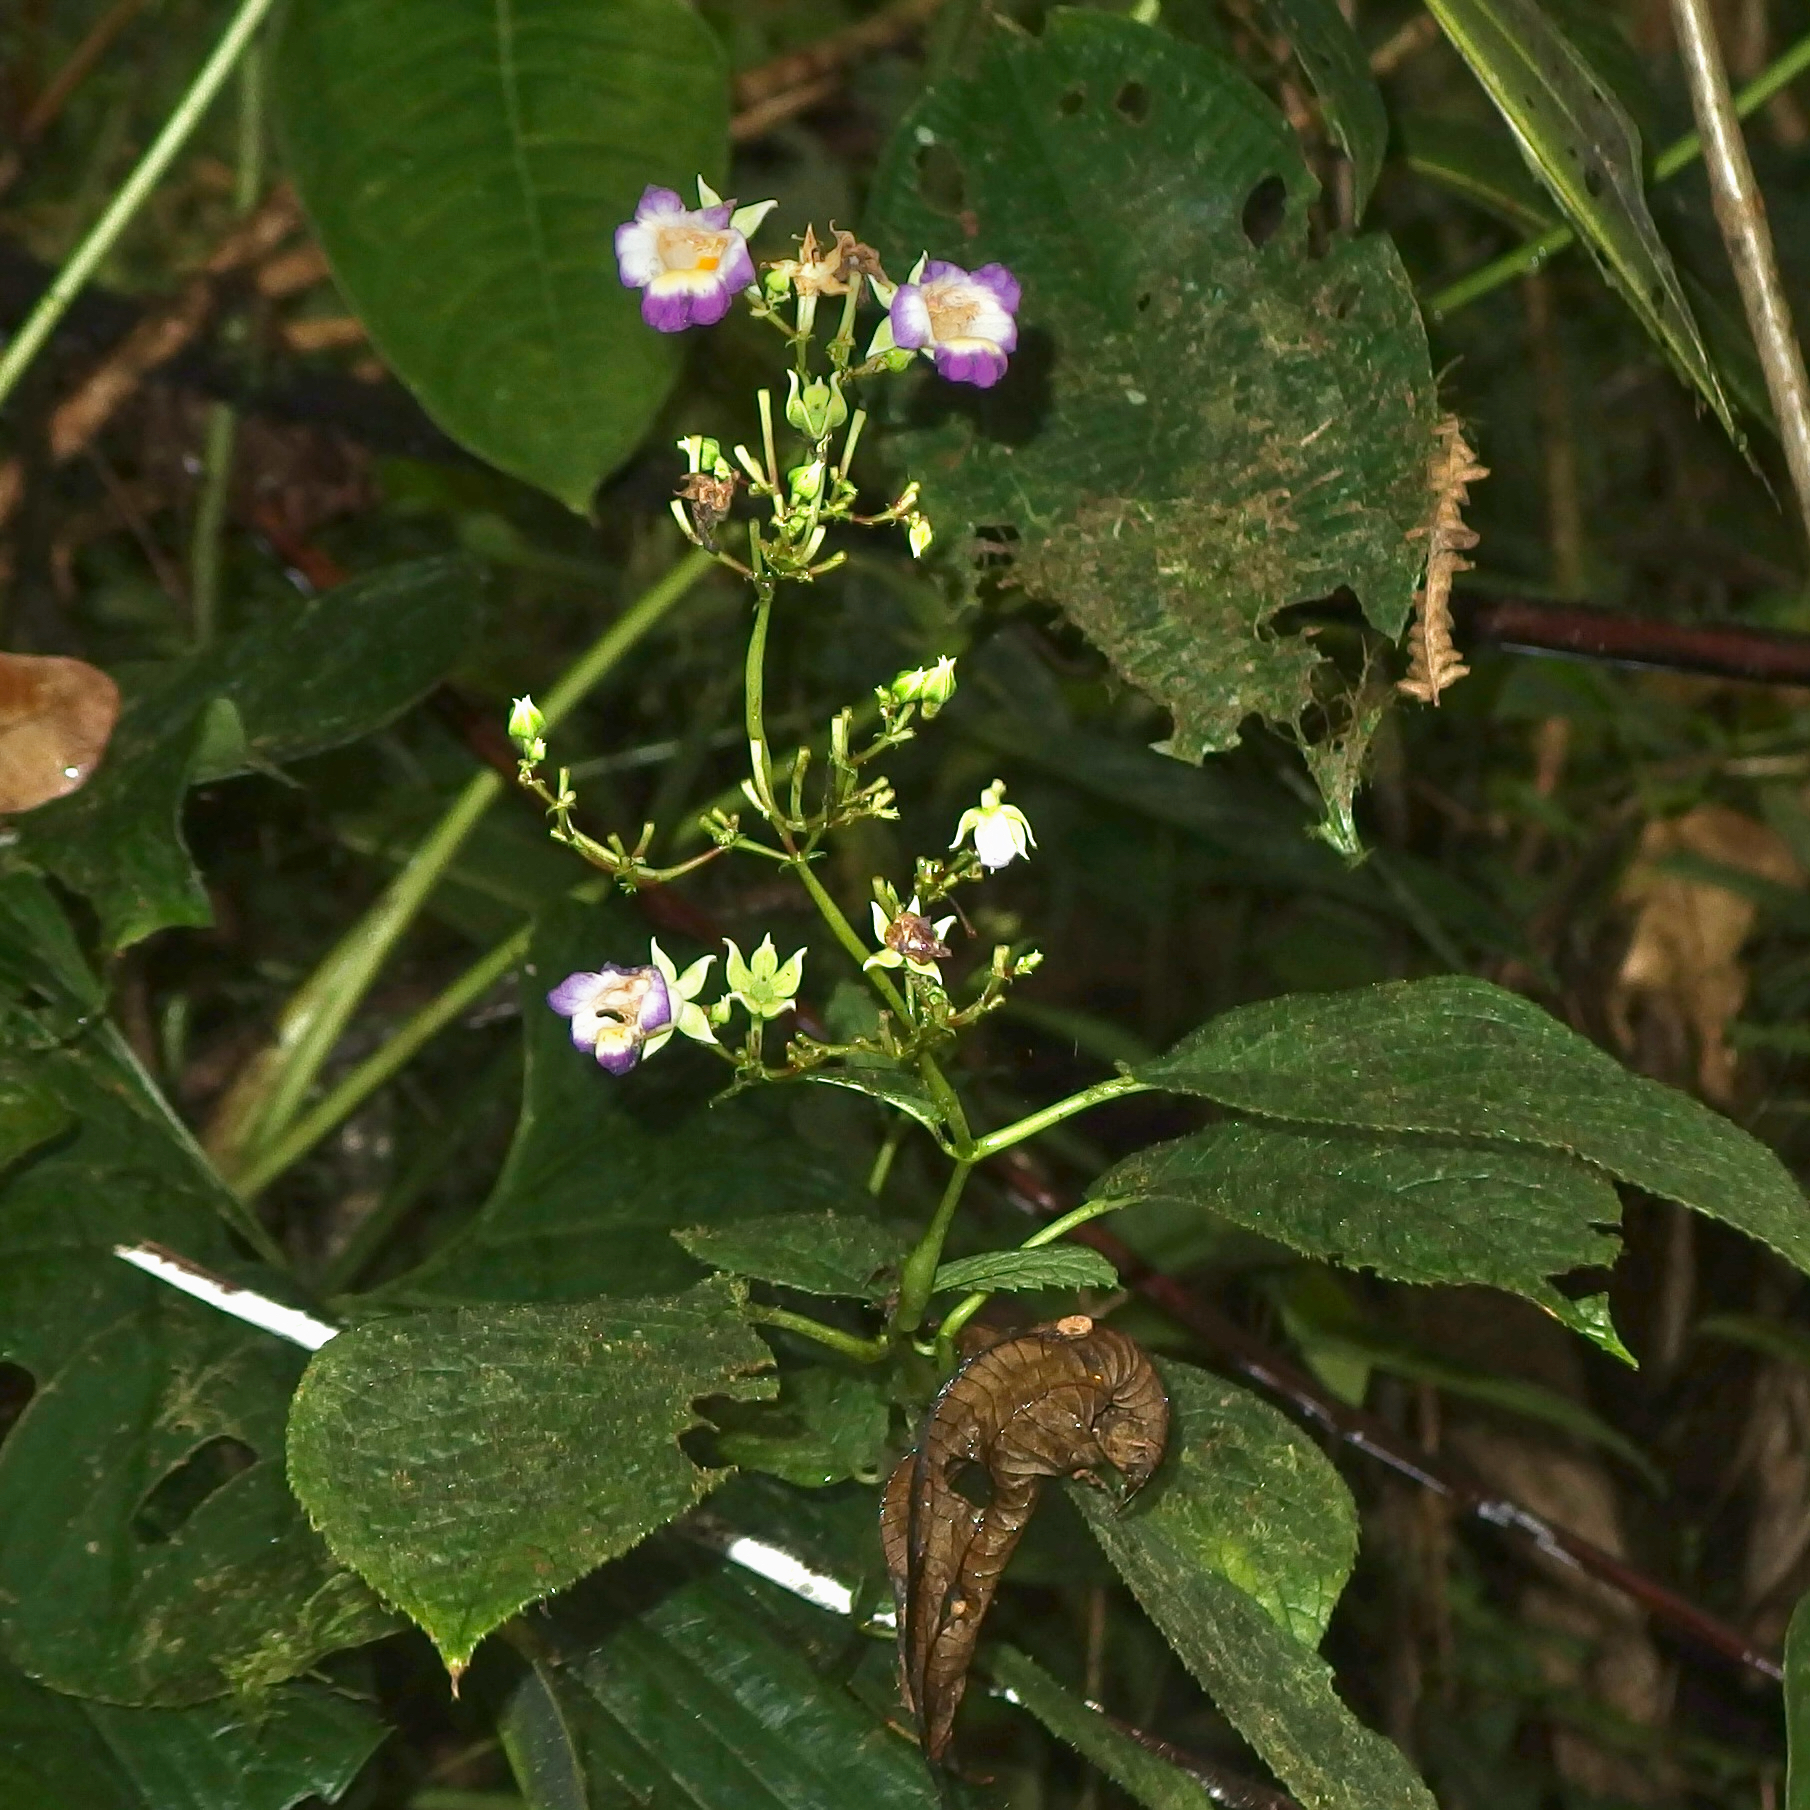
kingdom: Plantae
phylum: Tracheophyta
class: Magnoliopsida
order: Lamiales
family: Gesneriaceae
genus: Monopyle
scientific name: Monopyle ecuadorensis
